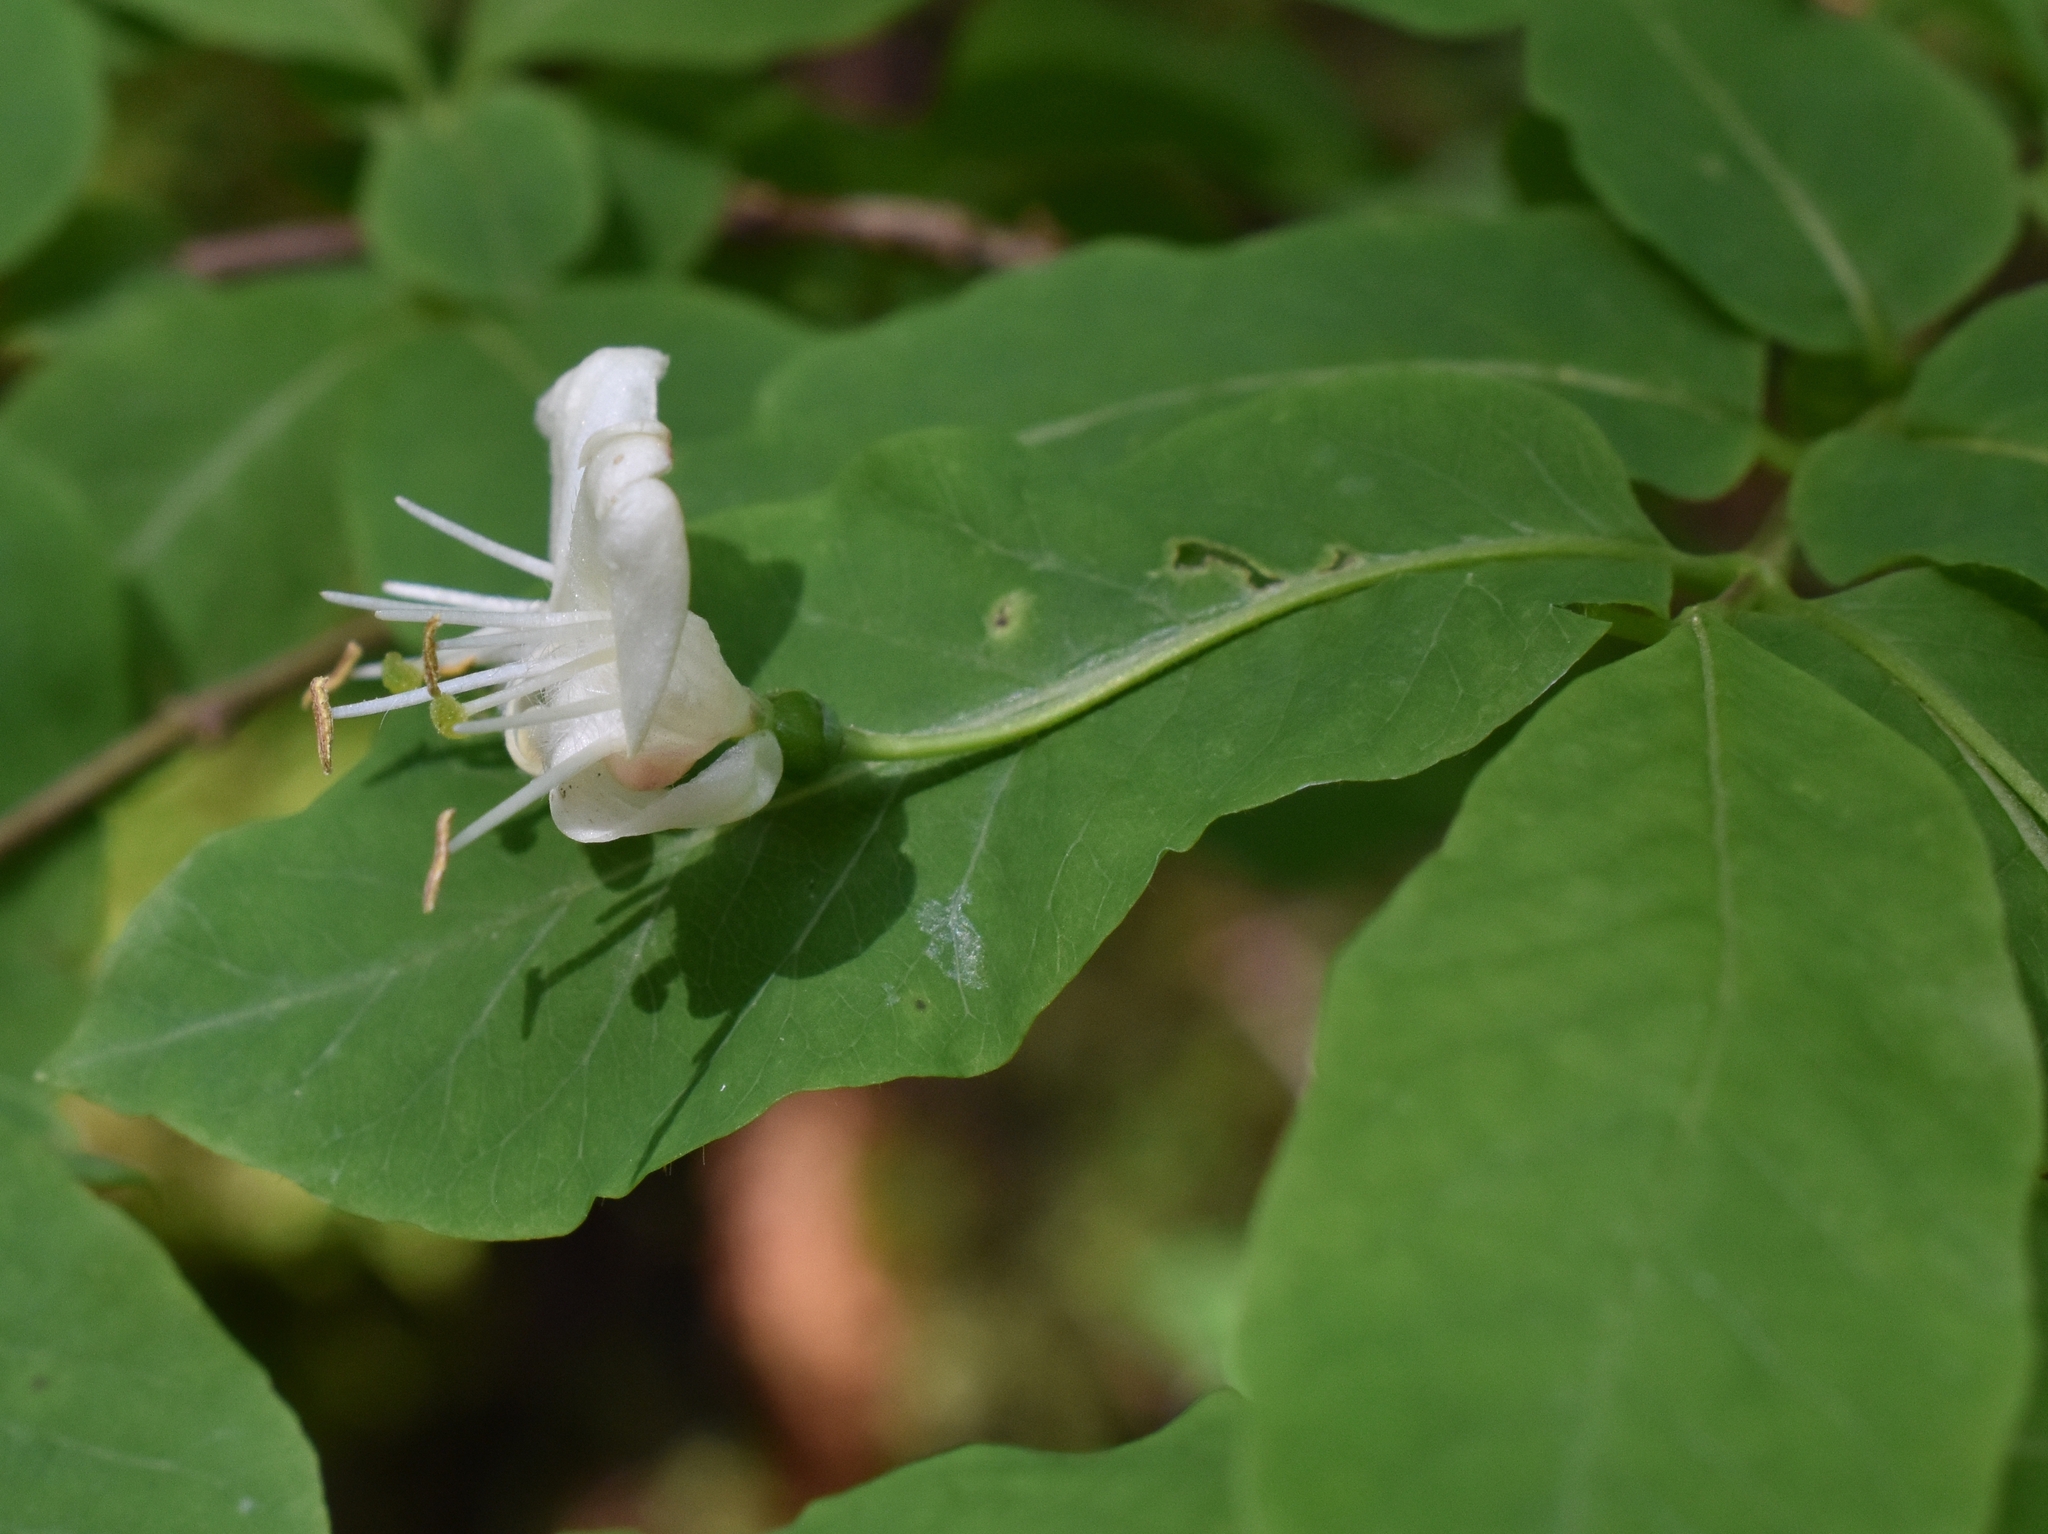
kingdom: Plantae
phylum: Tracheophyta
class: Magnoliopsida
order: Dipsacales
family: Caprifoliaceae
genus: Lonicera
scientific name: Lonicera nigra
